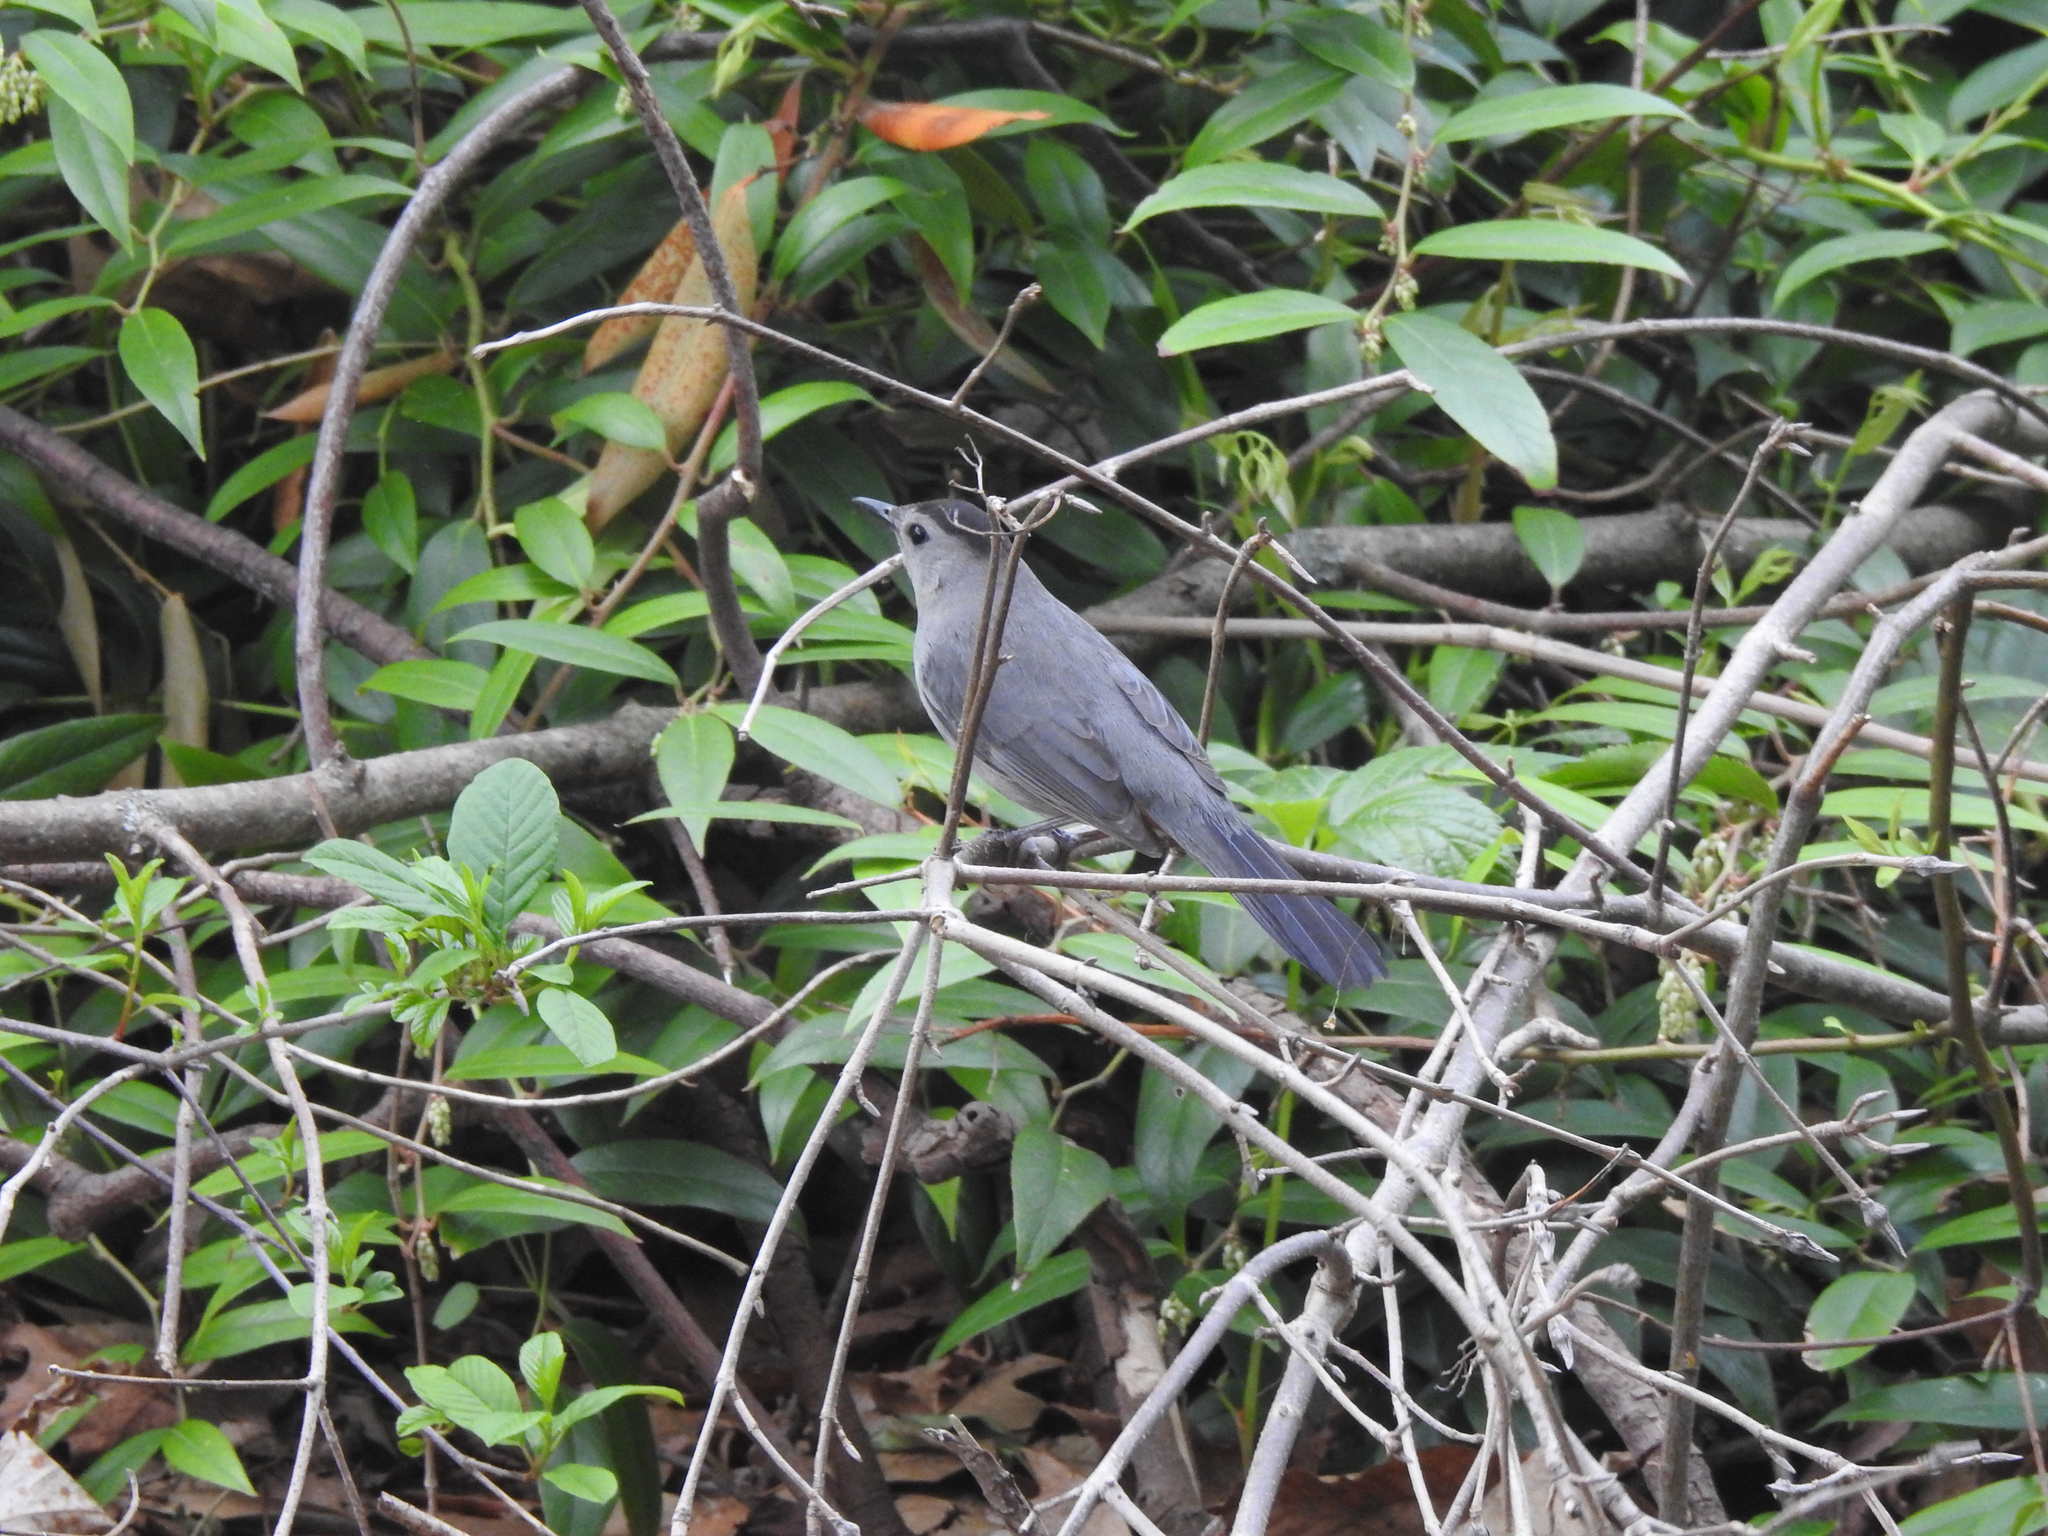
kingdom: Animalia
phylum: Chordata
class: Aves
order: Passeriformes
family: Mimidae
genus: Dumetella
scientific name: Dumetella carolinensis
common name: Gray catbird
